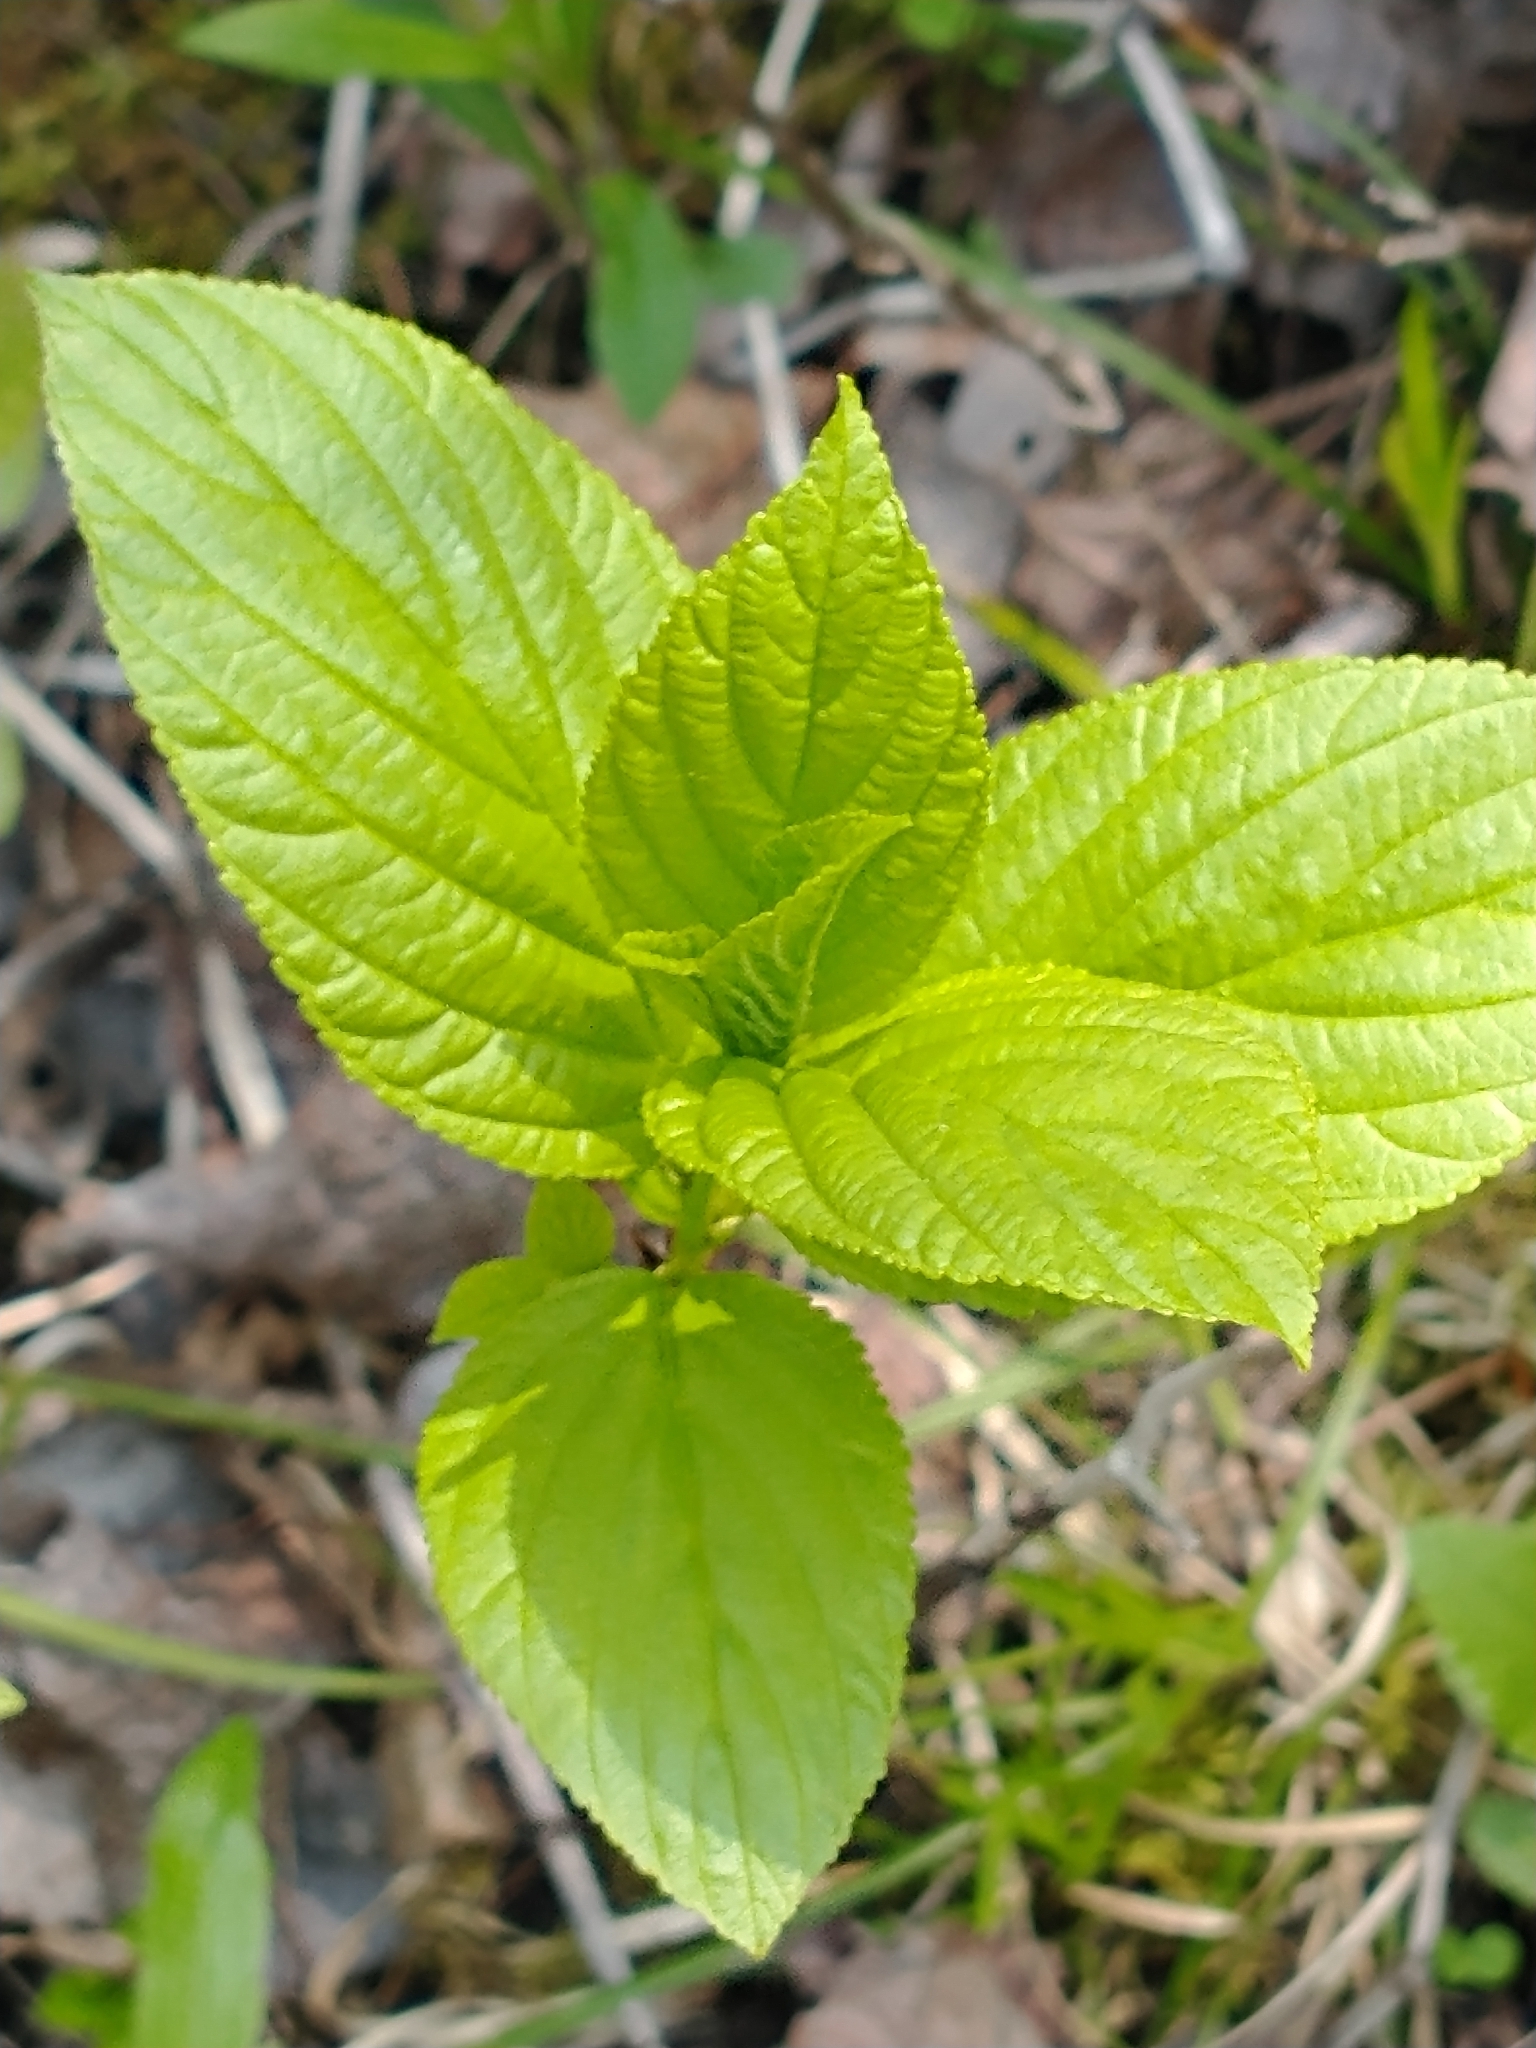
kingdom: Plantae
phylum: Tracheophyta
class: Magnoliopsida
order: Rosales
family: Rhamnaceae
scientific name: Rhamnaceae
